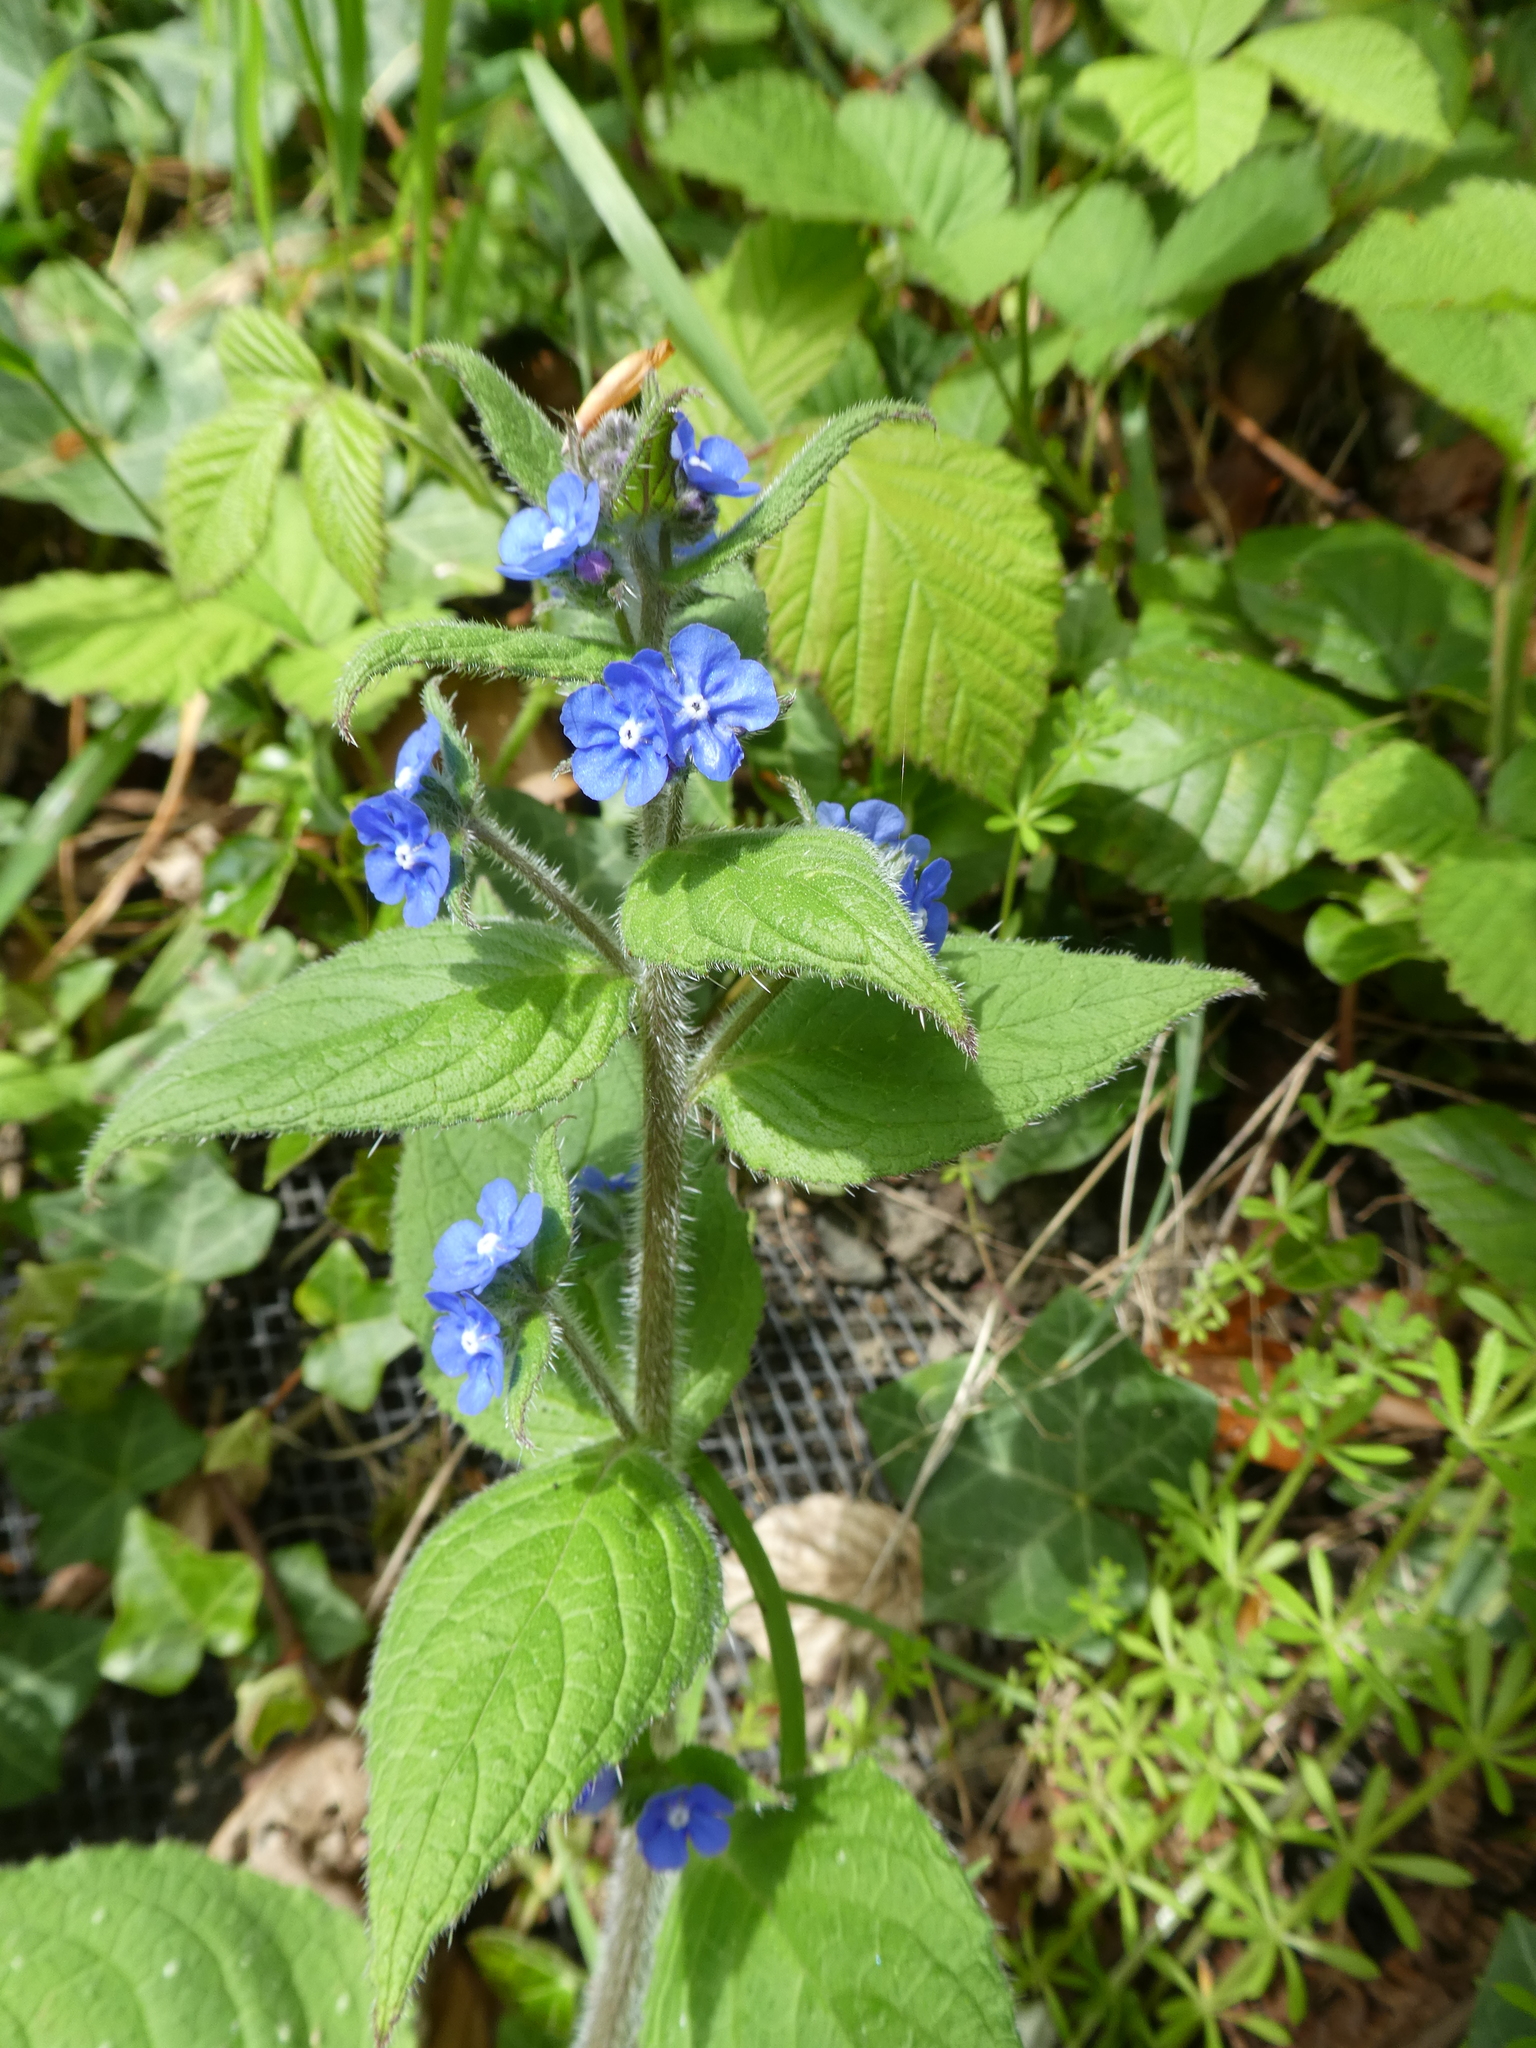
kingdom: Plantae
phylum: Tracheophyta
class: Magnoliopsida
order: Boraginales
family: Boraginaceae
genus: Pentaglottis
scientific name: Pentaglottis sempervirens
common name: Green alkanet
